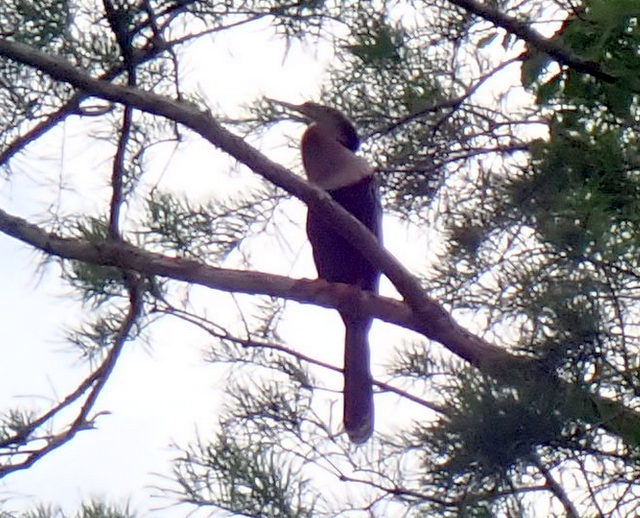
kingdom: Animalia
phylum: Chordata
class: Aves
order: Suliformes
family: Anhingidae
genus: Anhinga
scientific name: Anhinga anhinga
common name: Anhinga
